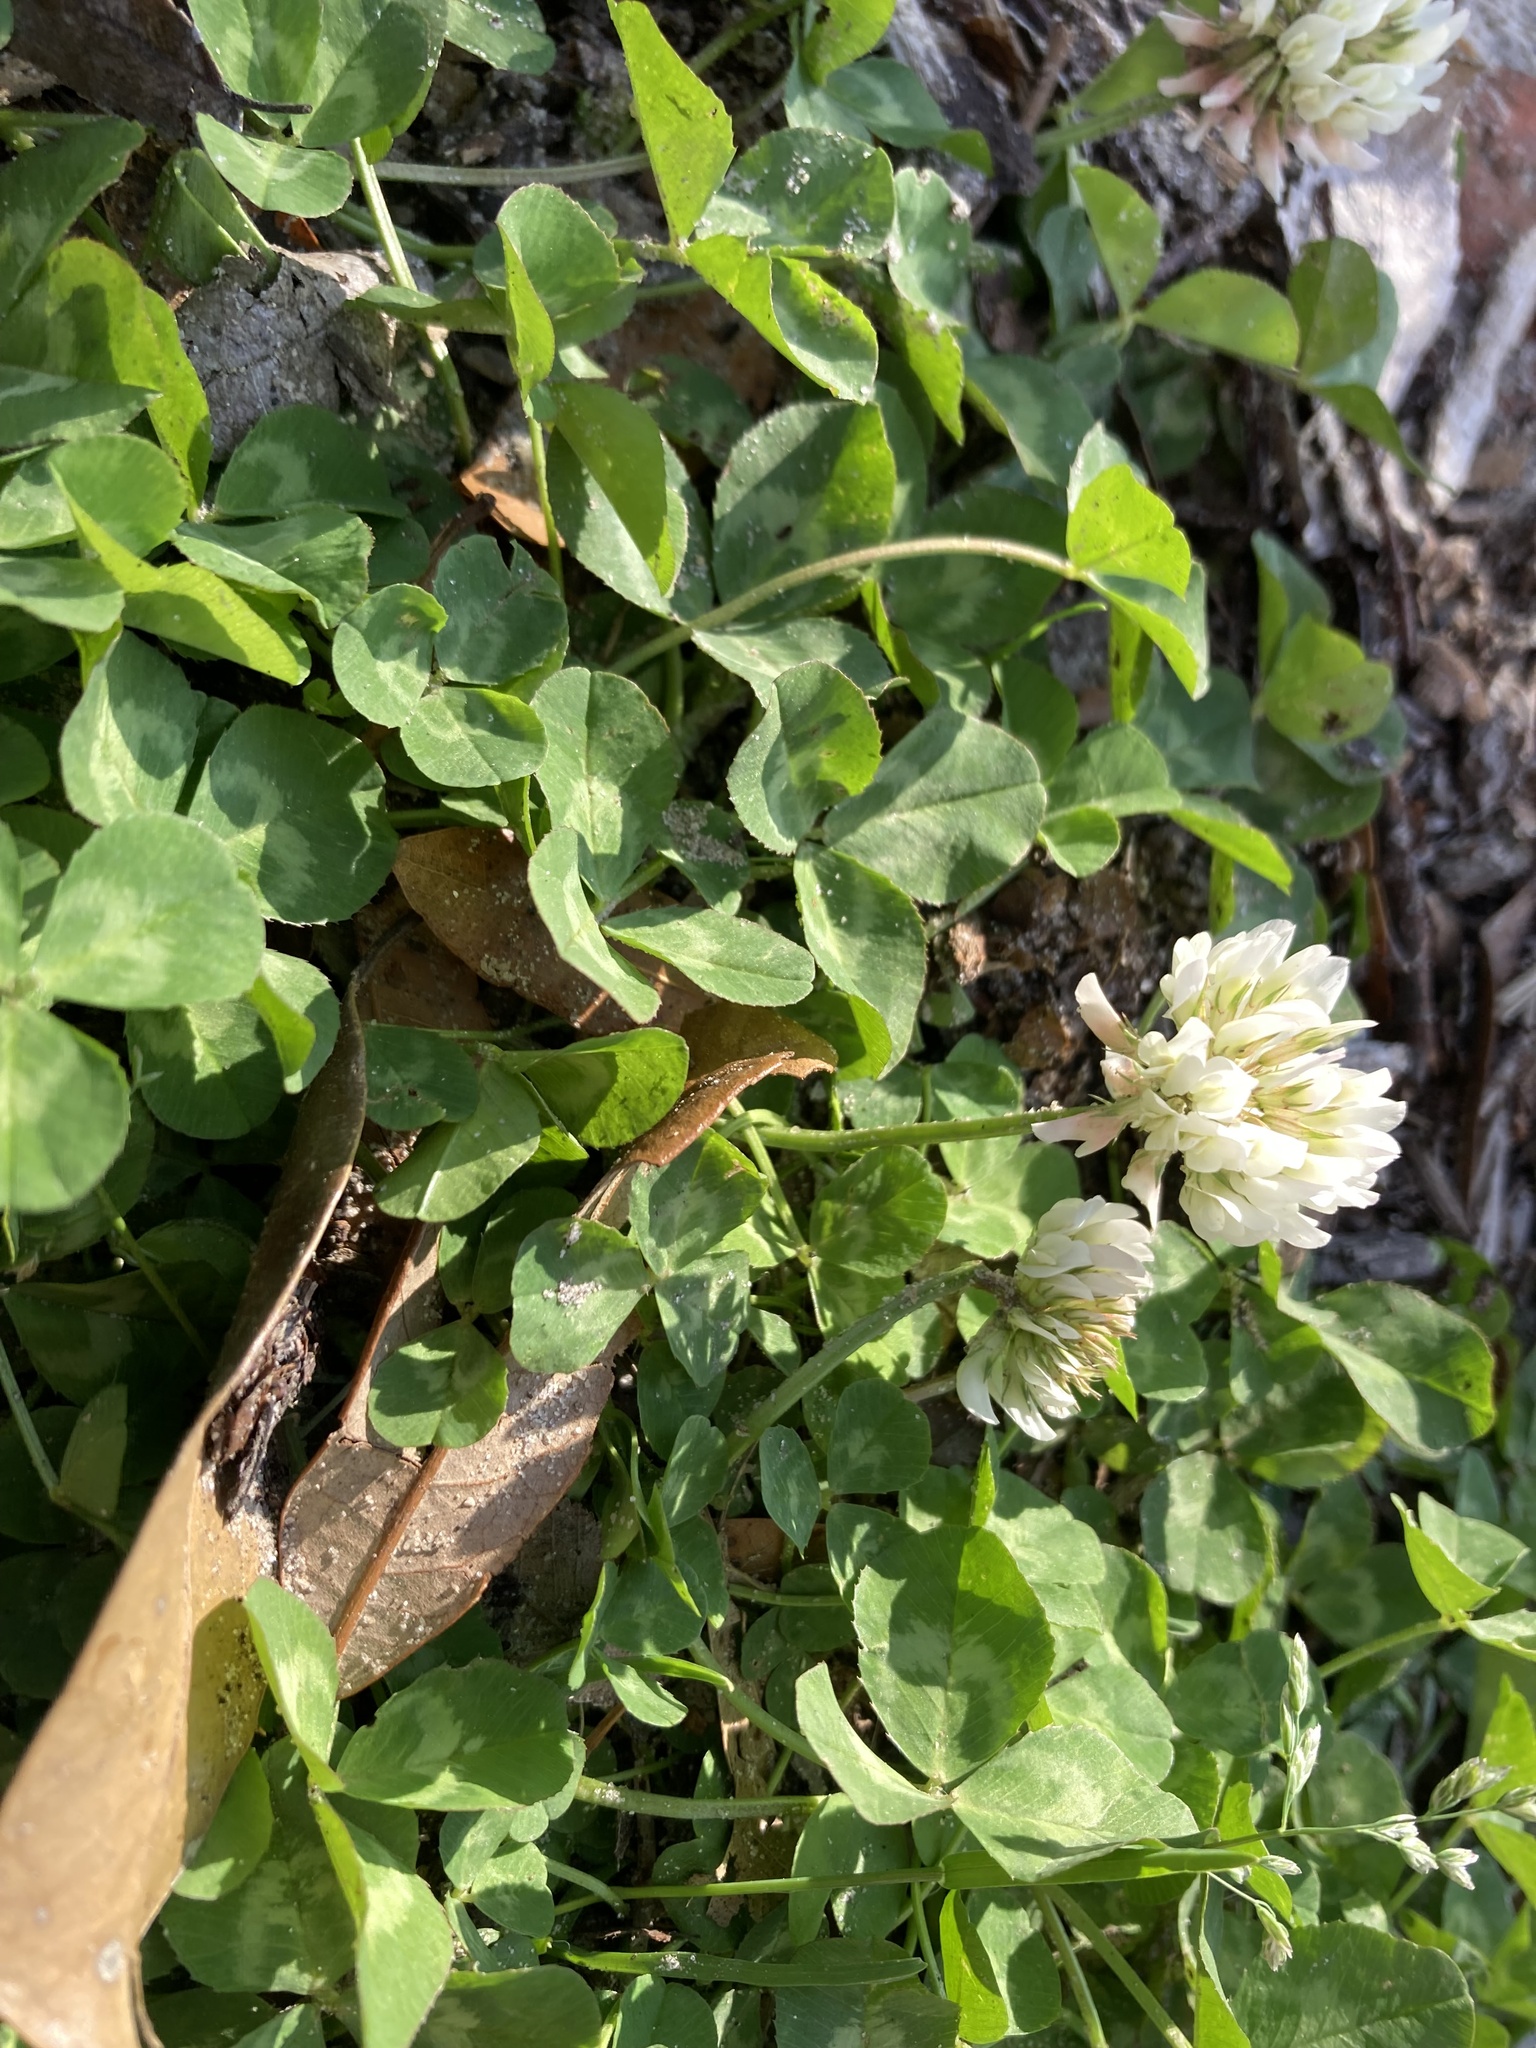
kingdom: Plantae
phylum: Tracheophyta
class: Magnoliopsida
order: Fabales
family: Fabaceae
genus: Trifolium
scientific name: Trifolium repens
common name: White clover
